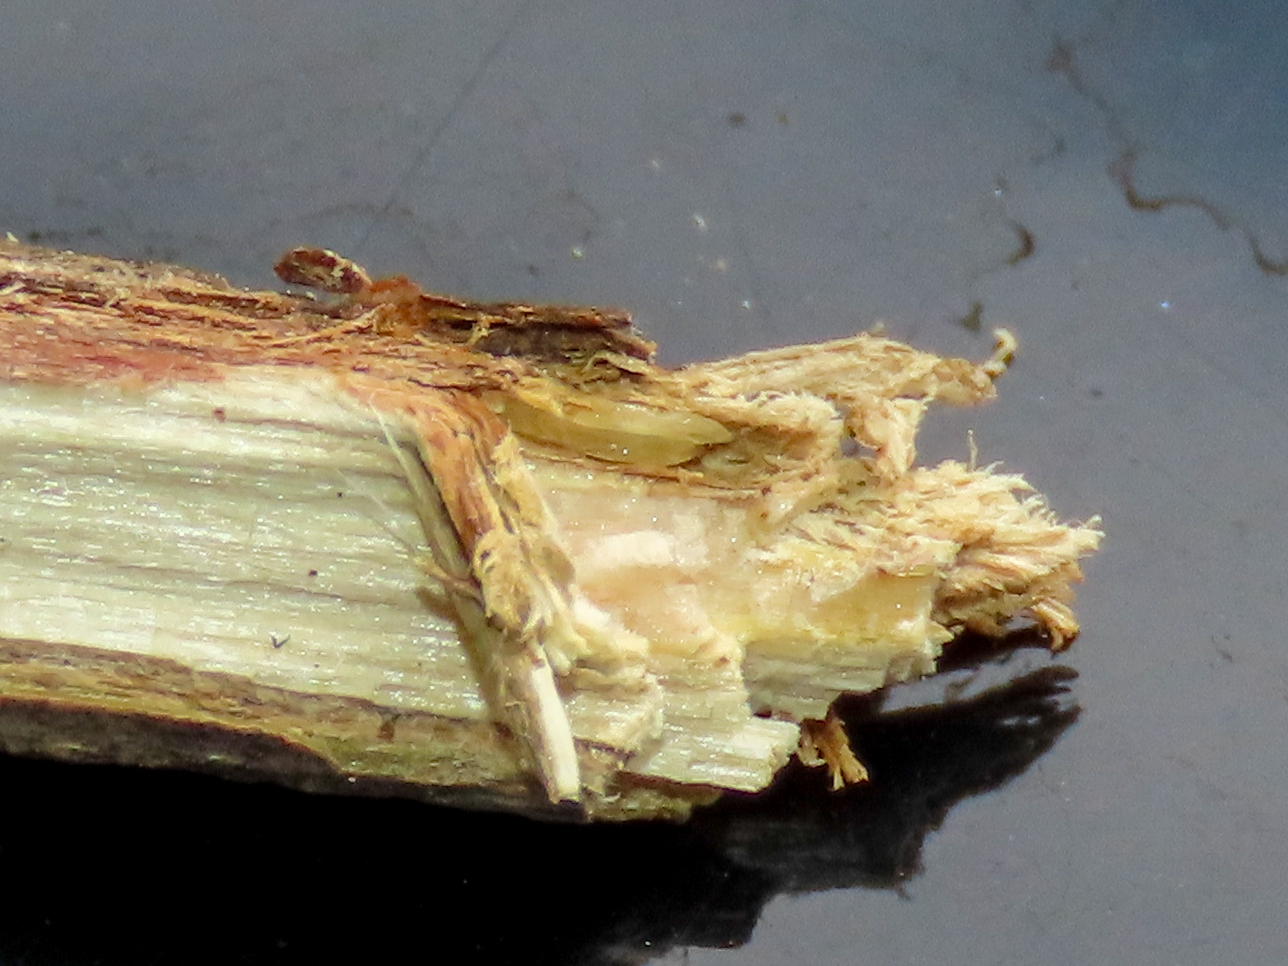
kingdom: Animalia
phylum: Arthropoda
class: Insecta
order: Hemiptera
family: Cicadidae
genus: Magicicada
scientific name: Magicicada
